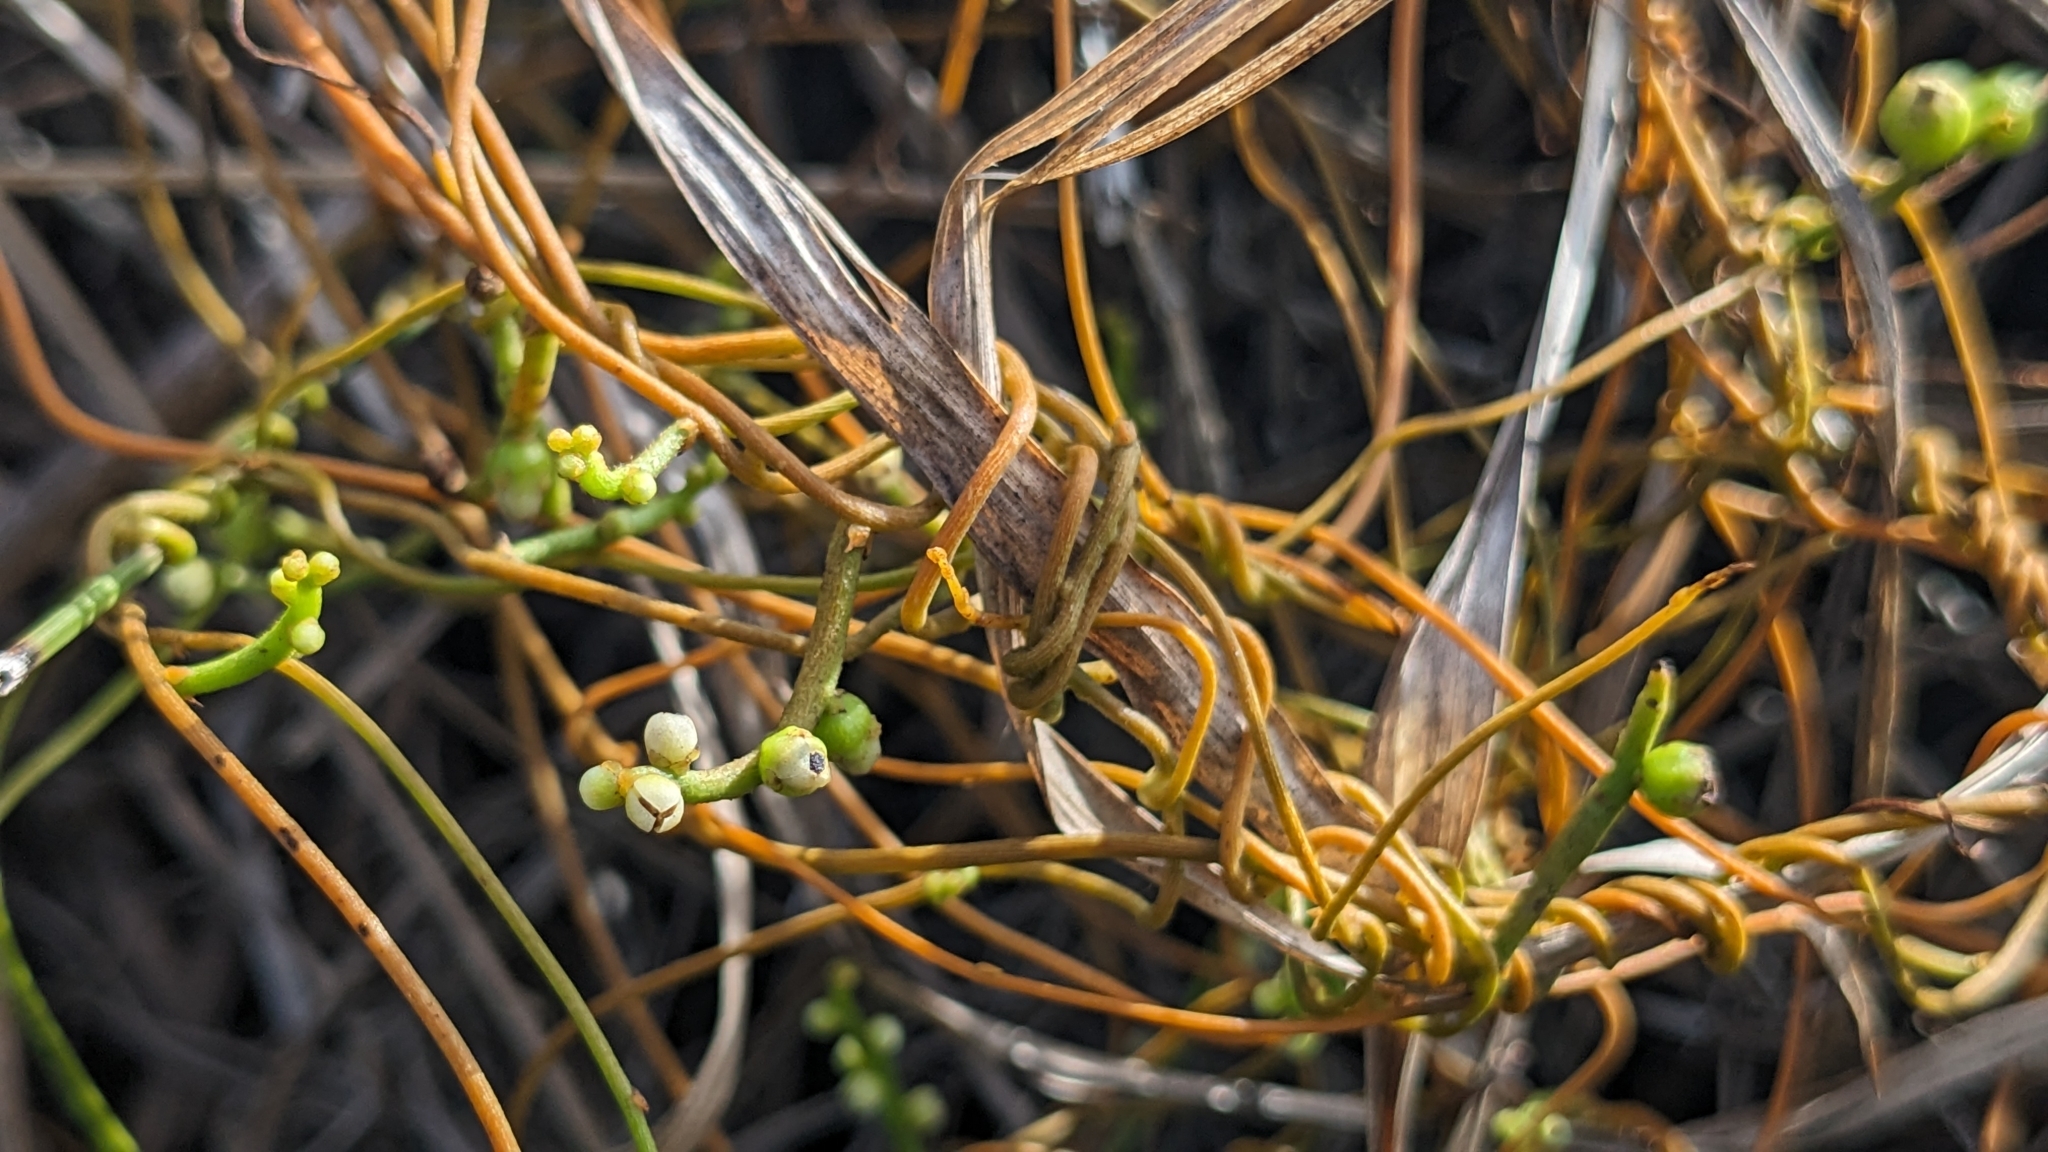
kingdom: Plantae
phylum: Tracheophyta
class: Magnoliopsida
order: Laurales
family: Lauraceae
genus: Cassytha
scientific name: Cassytha filiformis
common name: Dodder-laurel
